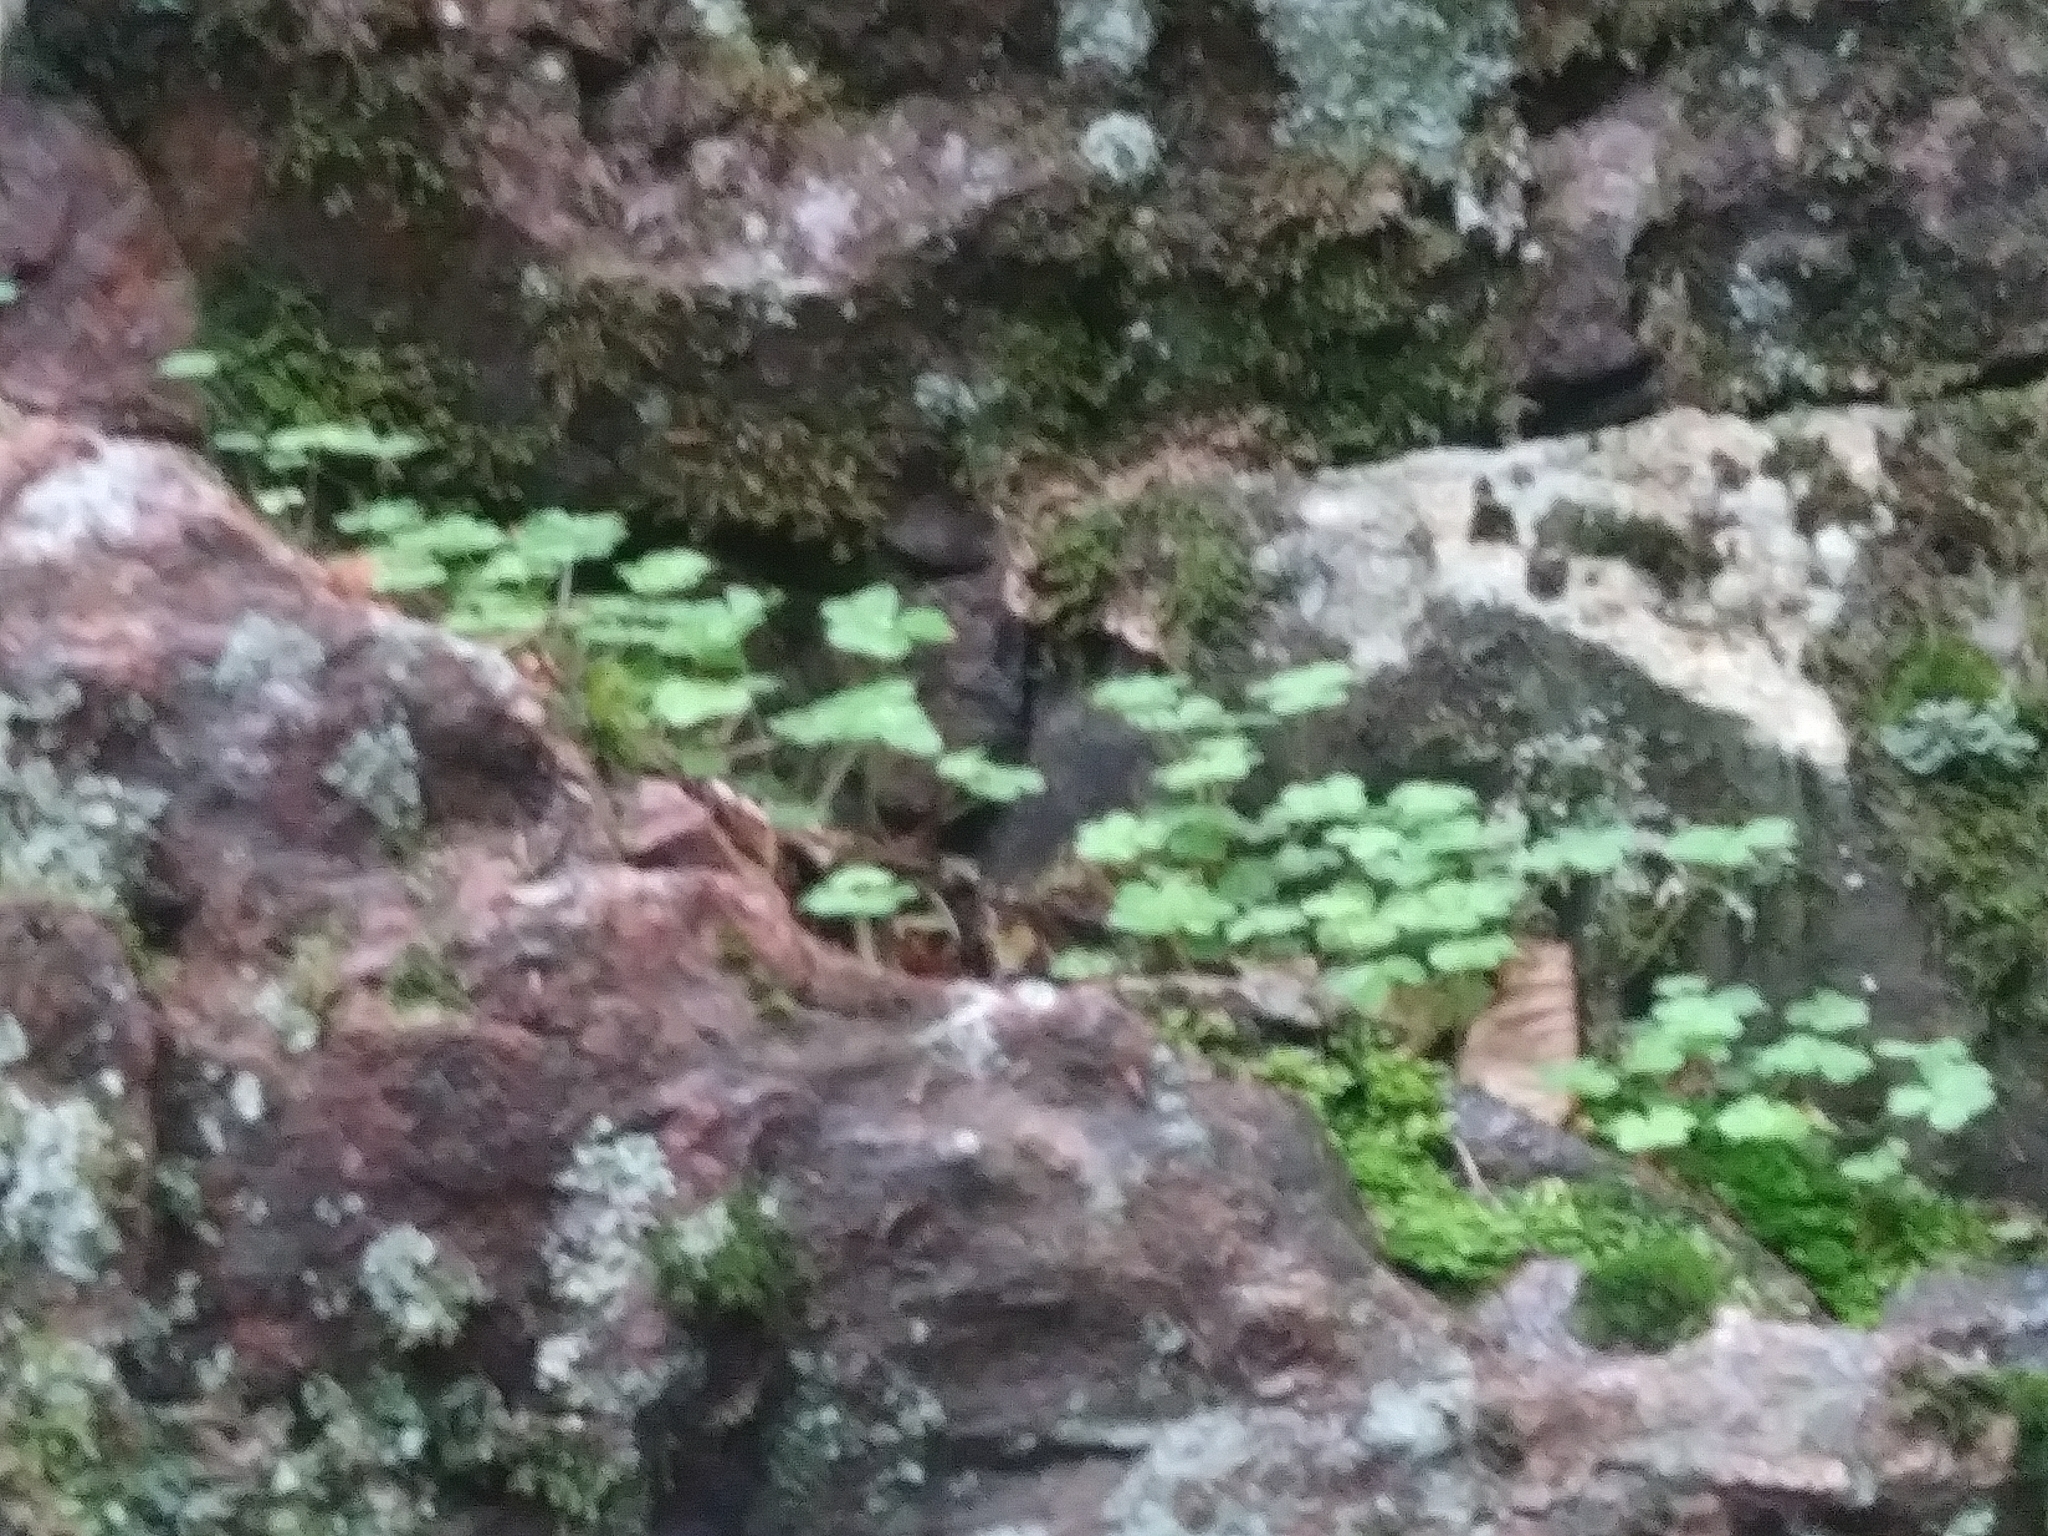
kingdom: Plantae
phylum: Tracheophyta
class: Magnoliopsida
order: Oxalidales
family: Oxalidaceae
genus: Oxalis
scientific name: Oxalis montana
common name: American wood-sorrel
